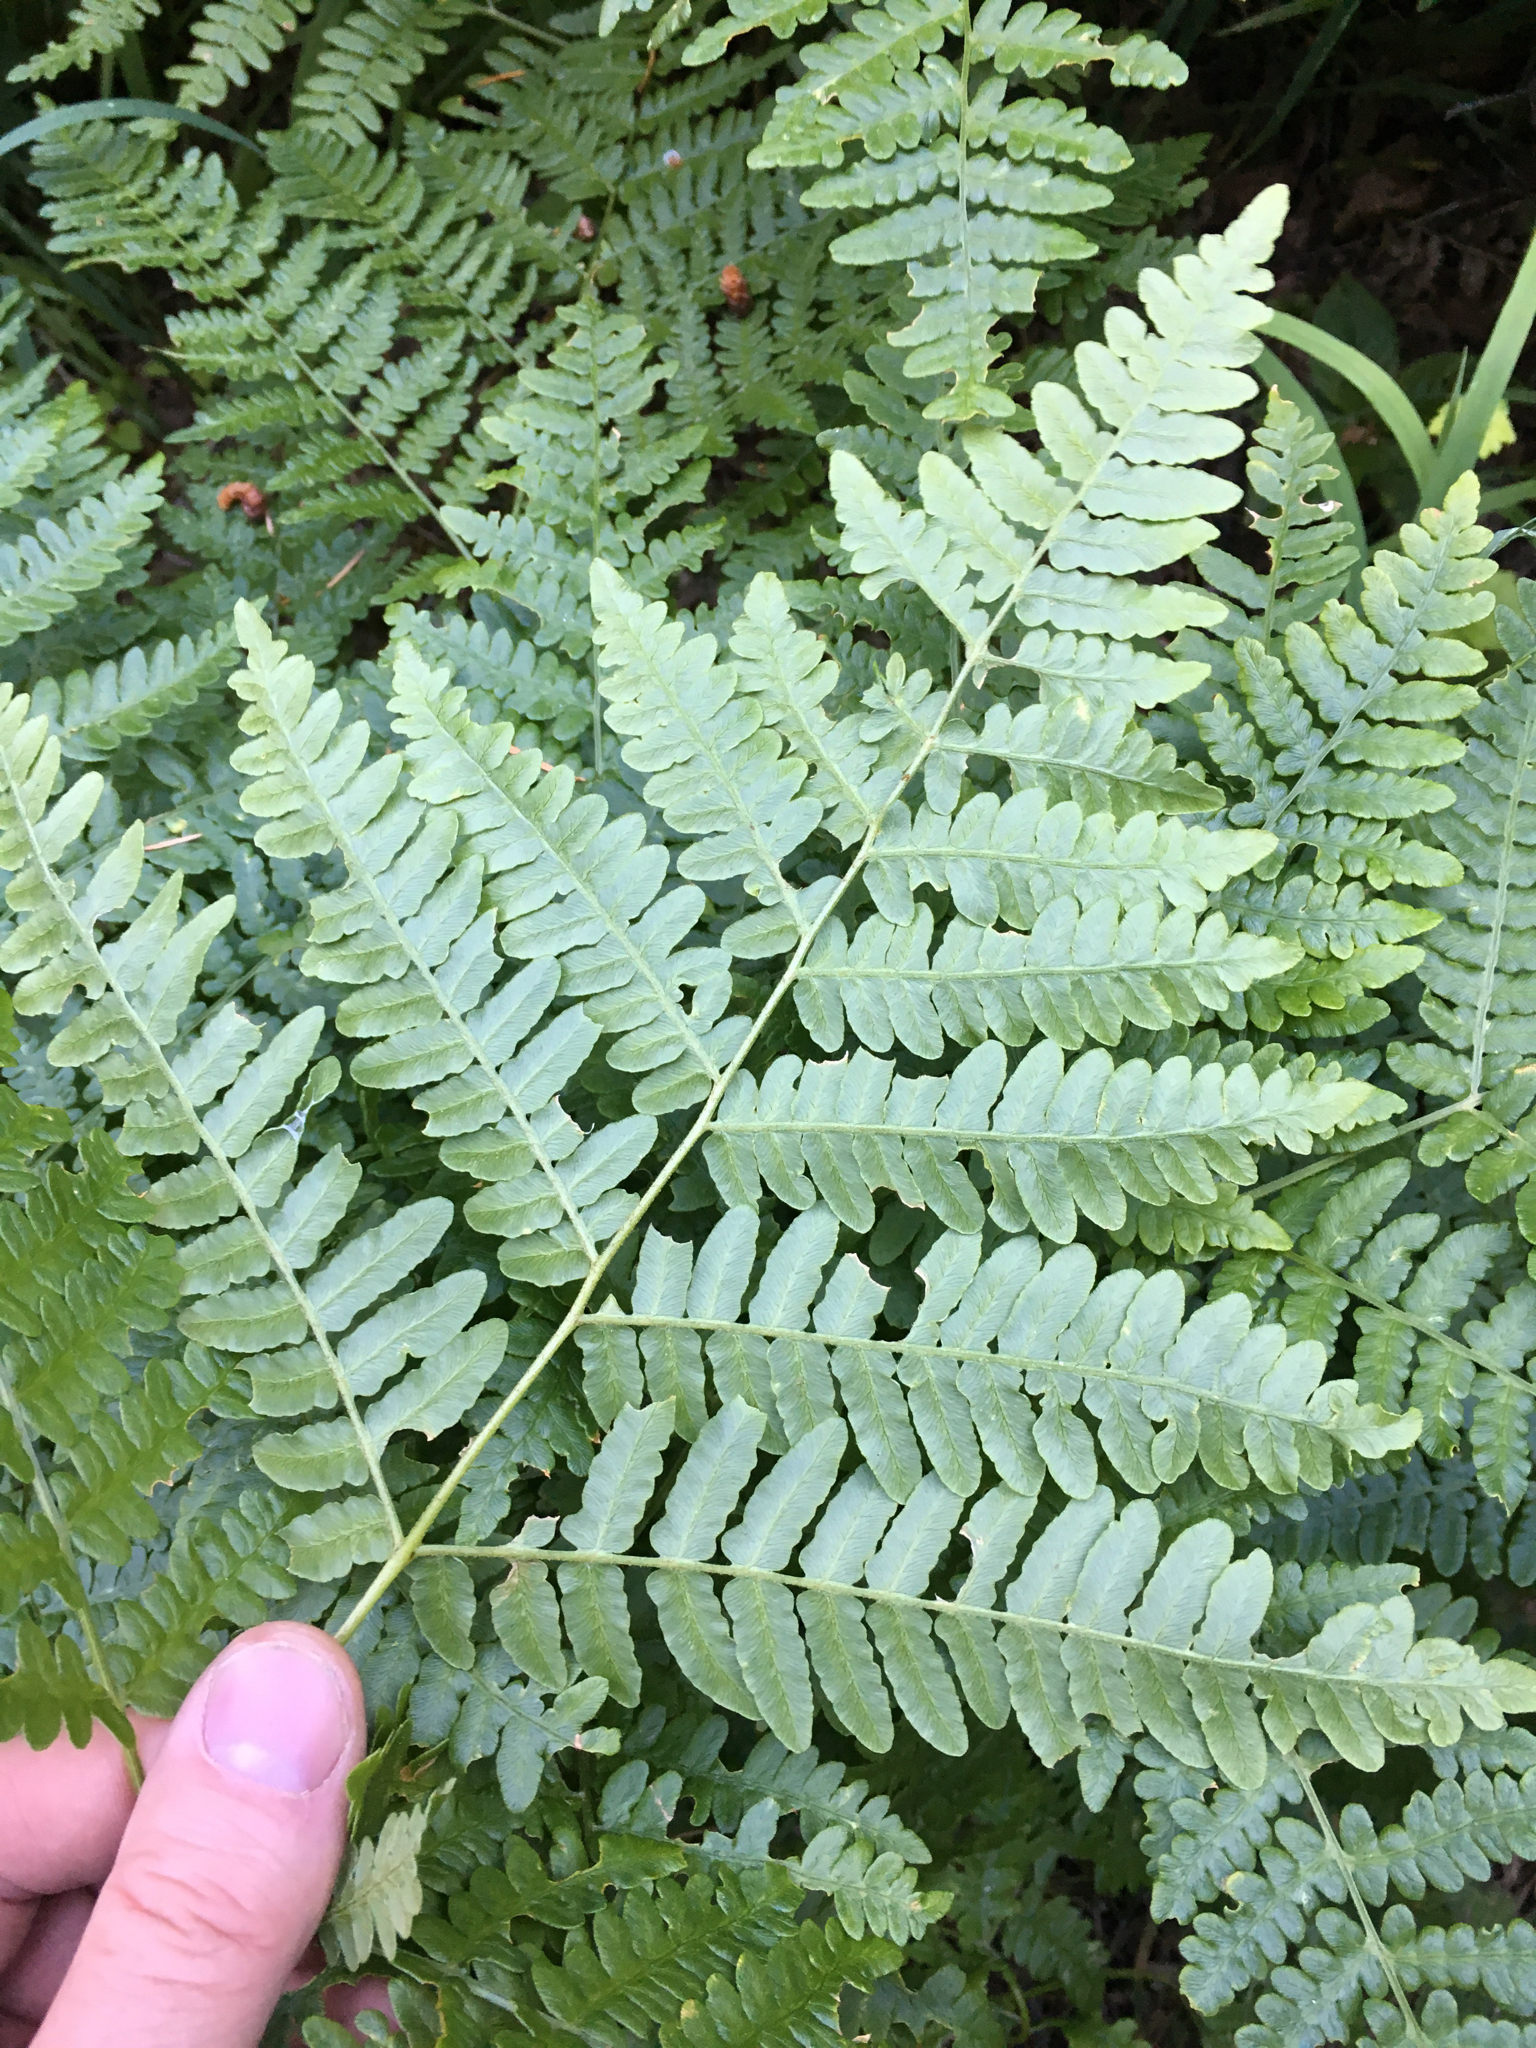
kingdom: Plantae
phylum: Tracheophyta
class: Polypodiopsida
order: Polypodiales
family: Dennstaedtiaceae
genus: Pteridium
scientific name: Pteridium aquilinum
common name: Bracken
